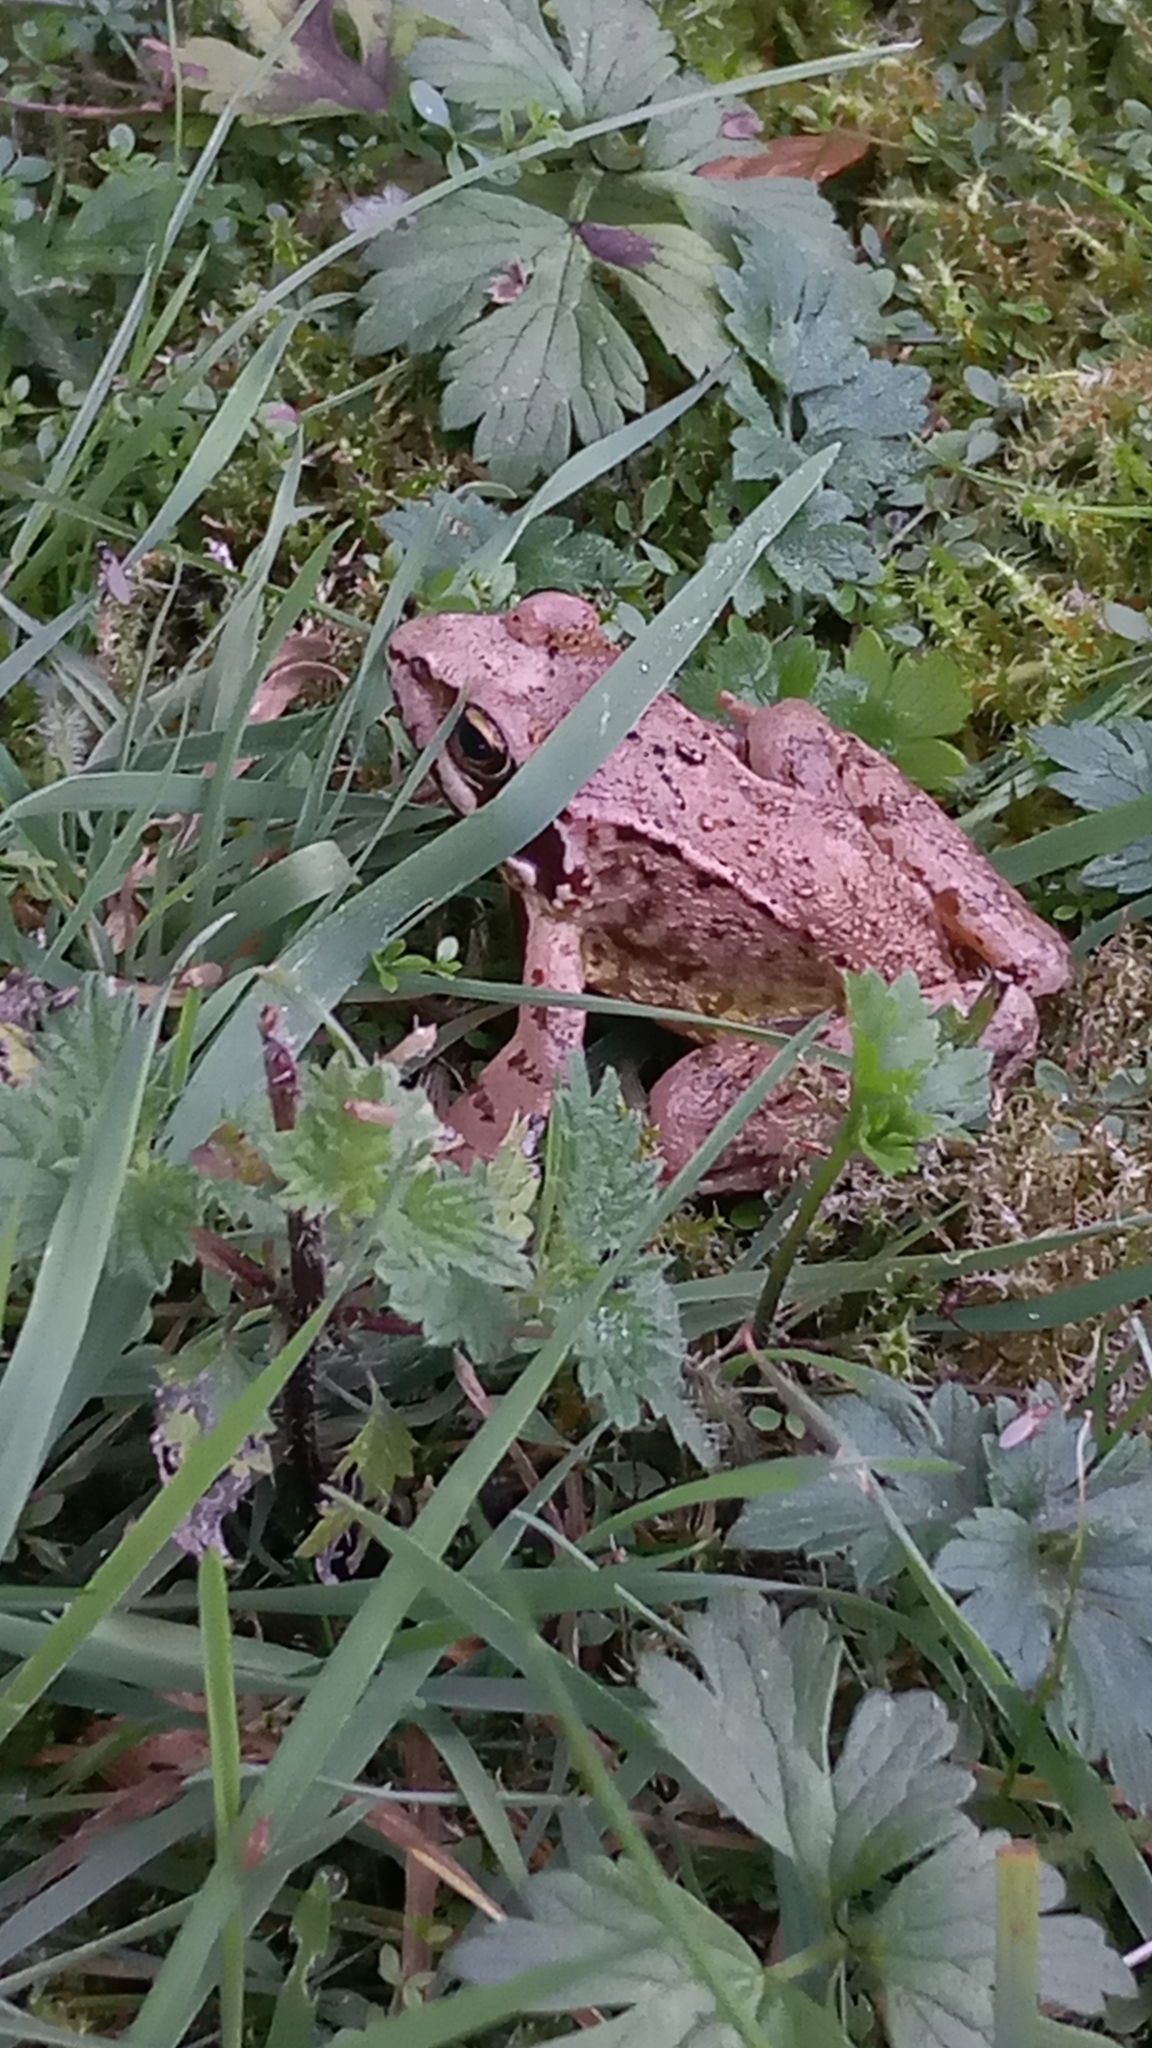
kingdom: Animalia
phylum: Chordata
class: Amphibia
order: Anura
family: Ranidae
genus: Rana
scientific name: Rana temporaria
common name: Common frog
